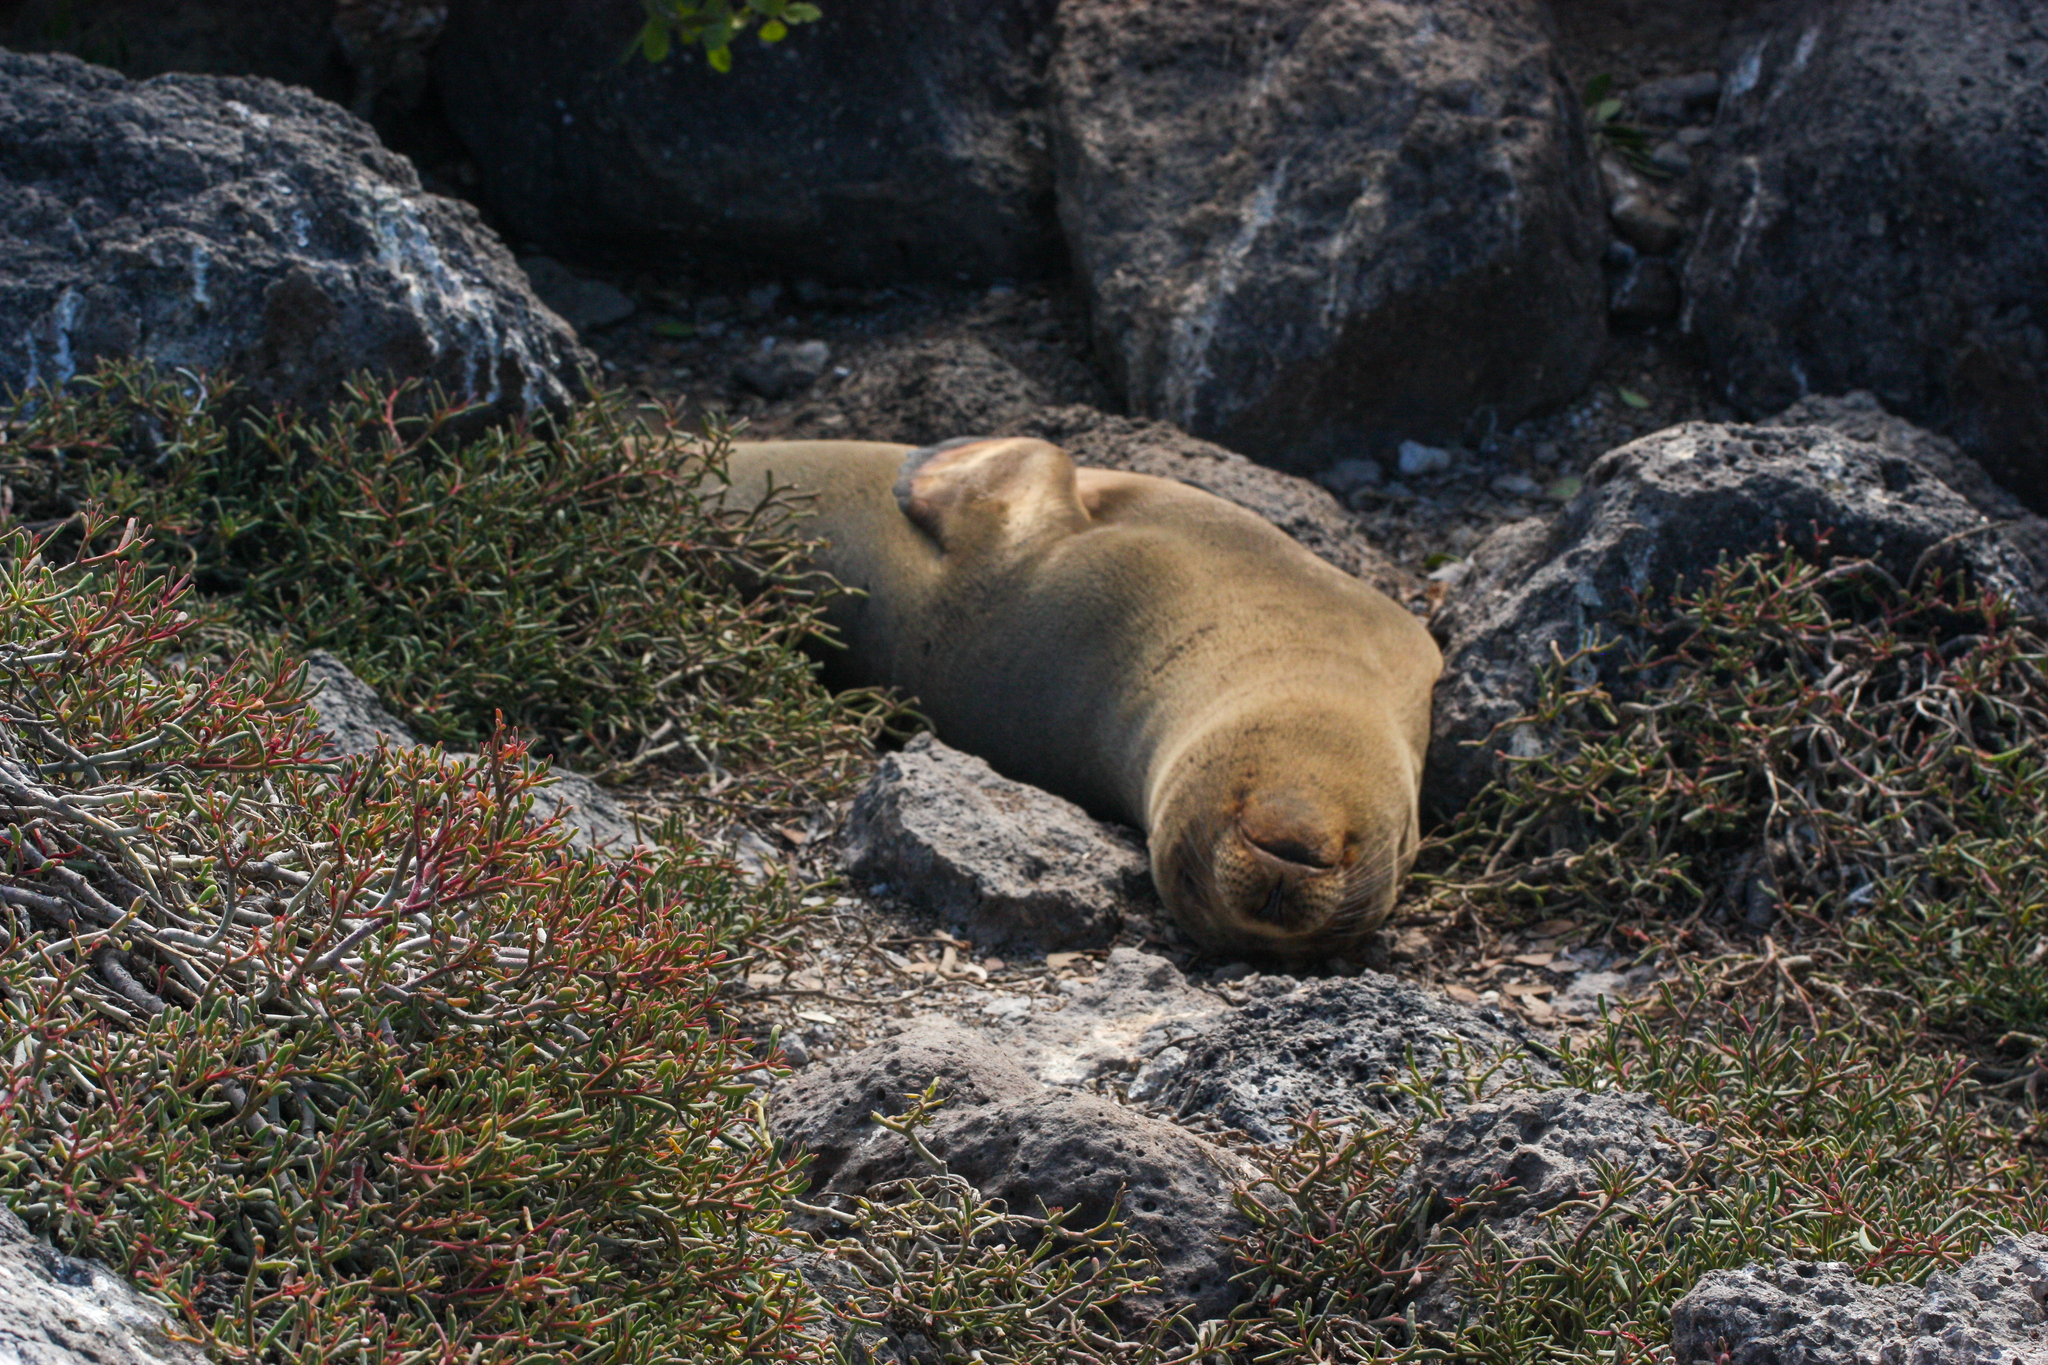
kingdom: Animalia
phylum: Chordata
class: Mammalia
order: Carnivora
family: Otariidae
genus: Zalophus
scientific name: Zalophus wollebaeki
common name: Galapagos sea lion
